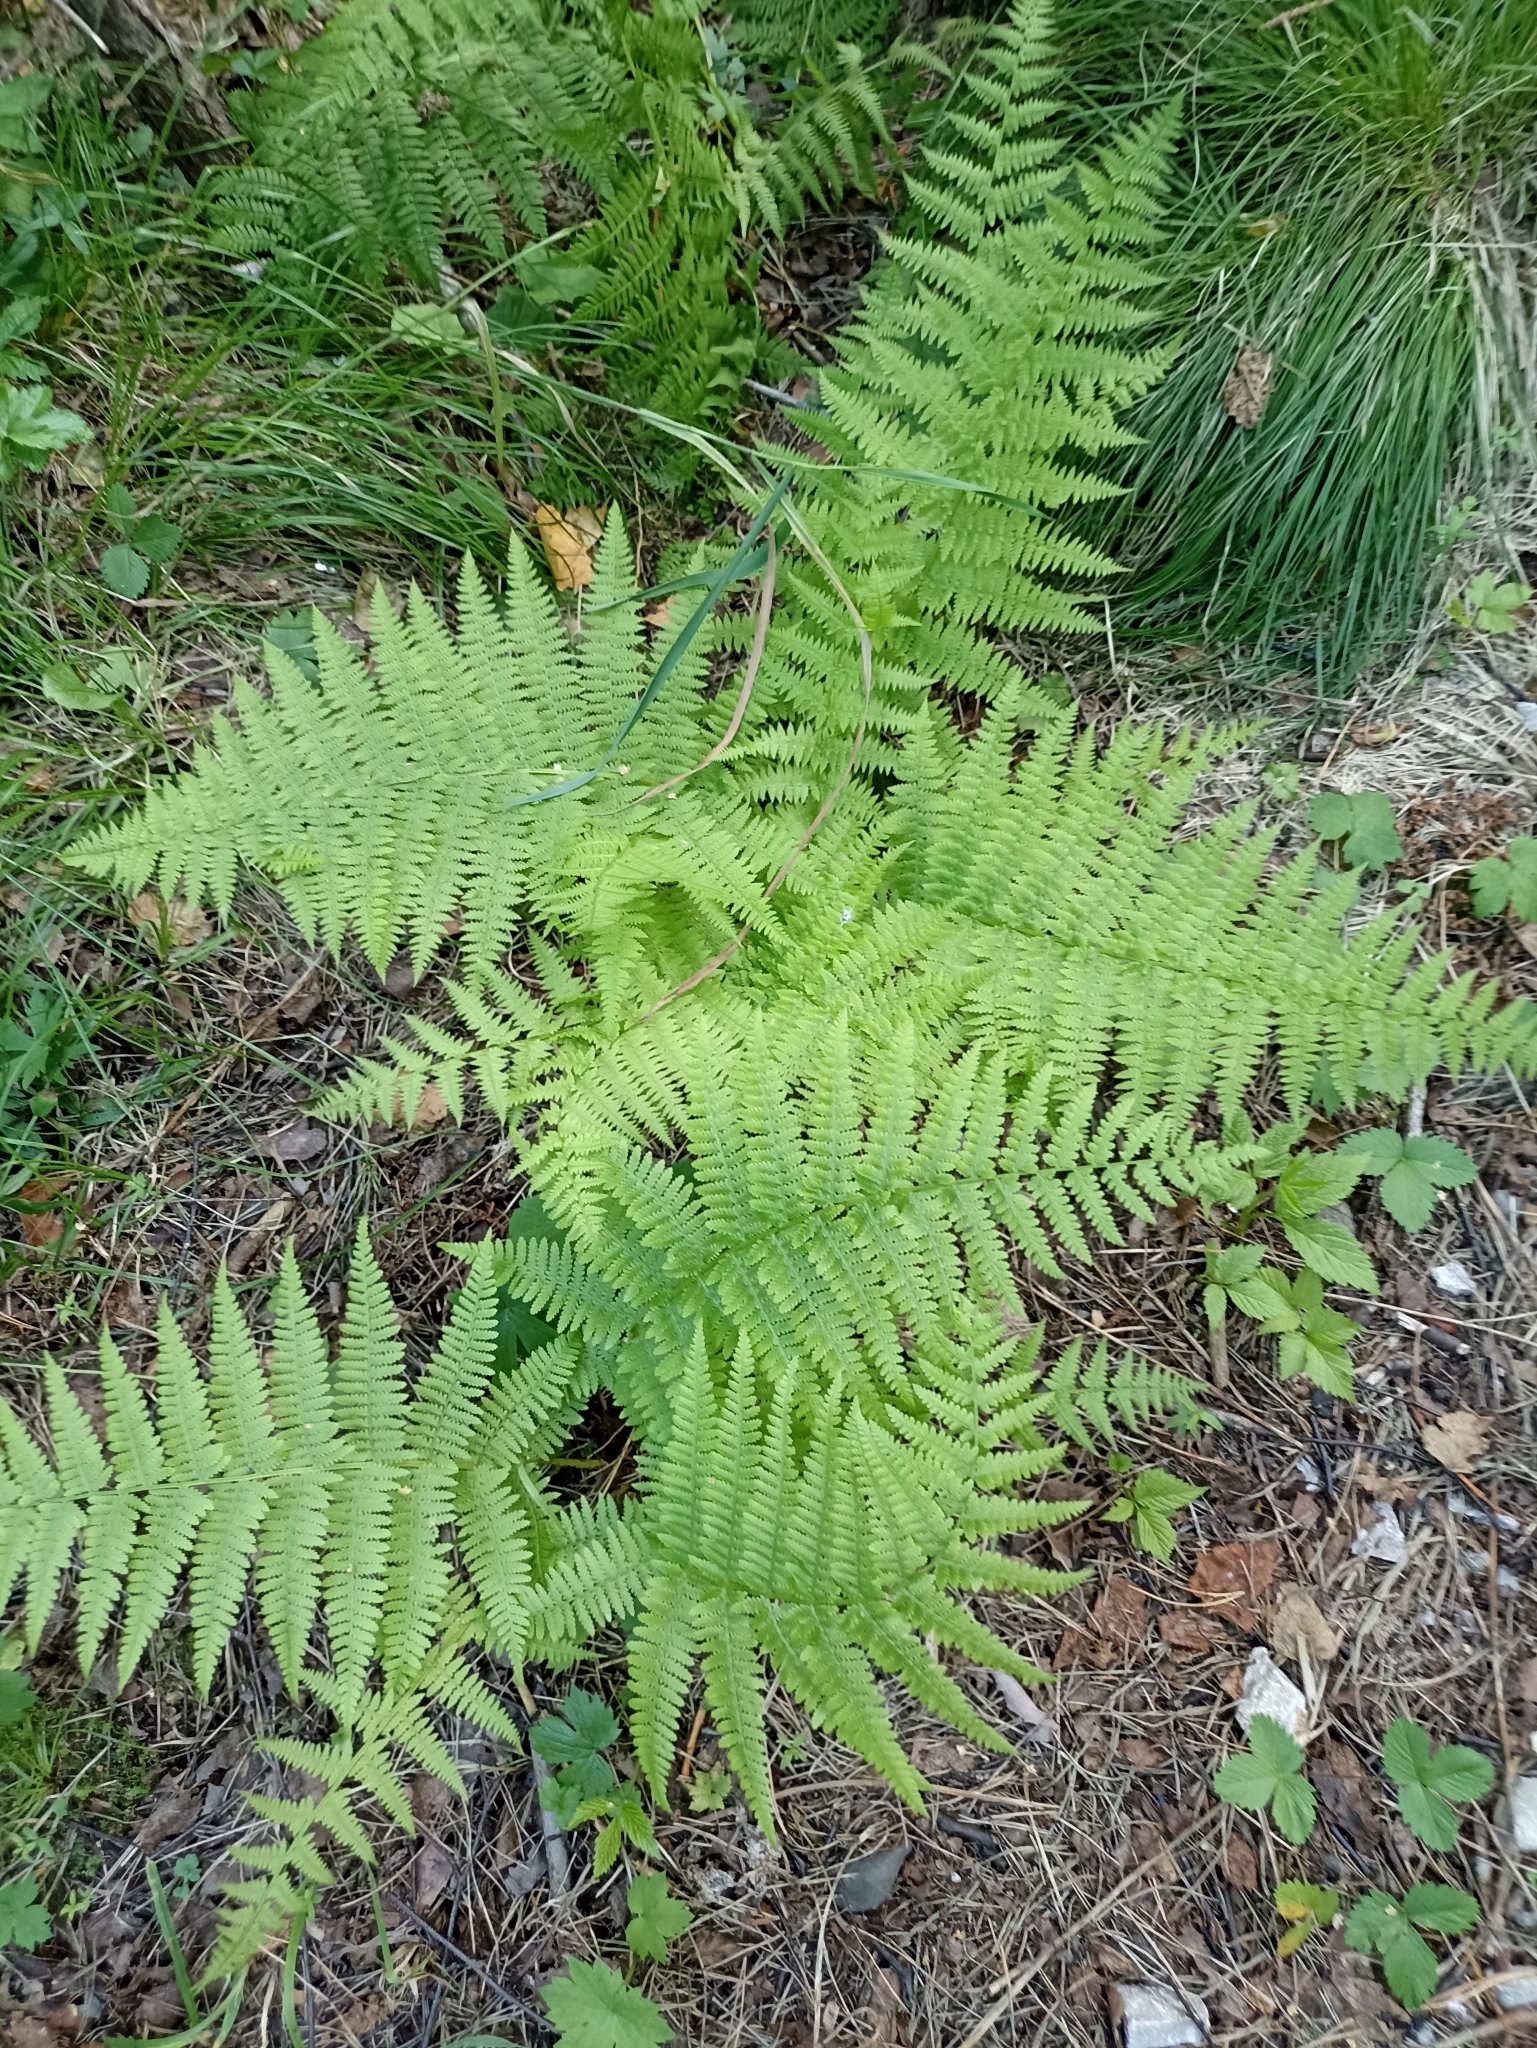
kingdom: Plantae
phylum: Tracheophyta
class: Polypodiopsida
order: Polypodiales
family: Athyriaceae
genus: Athyrium
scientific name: Athyrium filix-femina
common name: Lady fern
